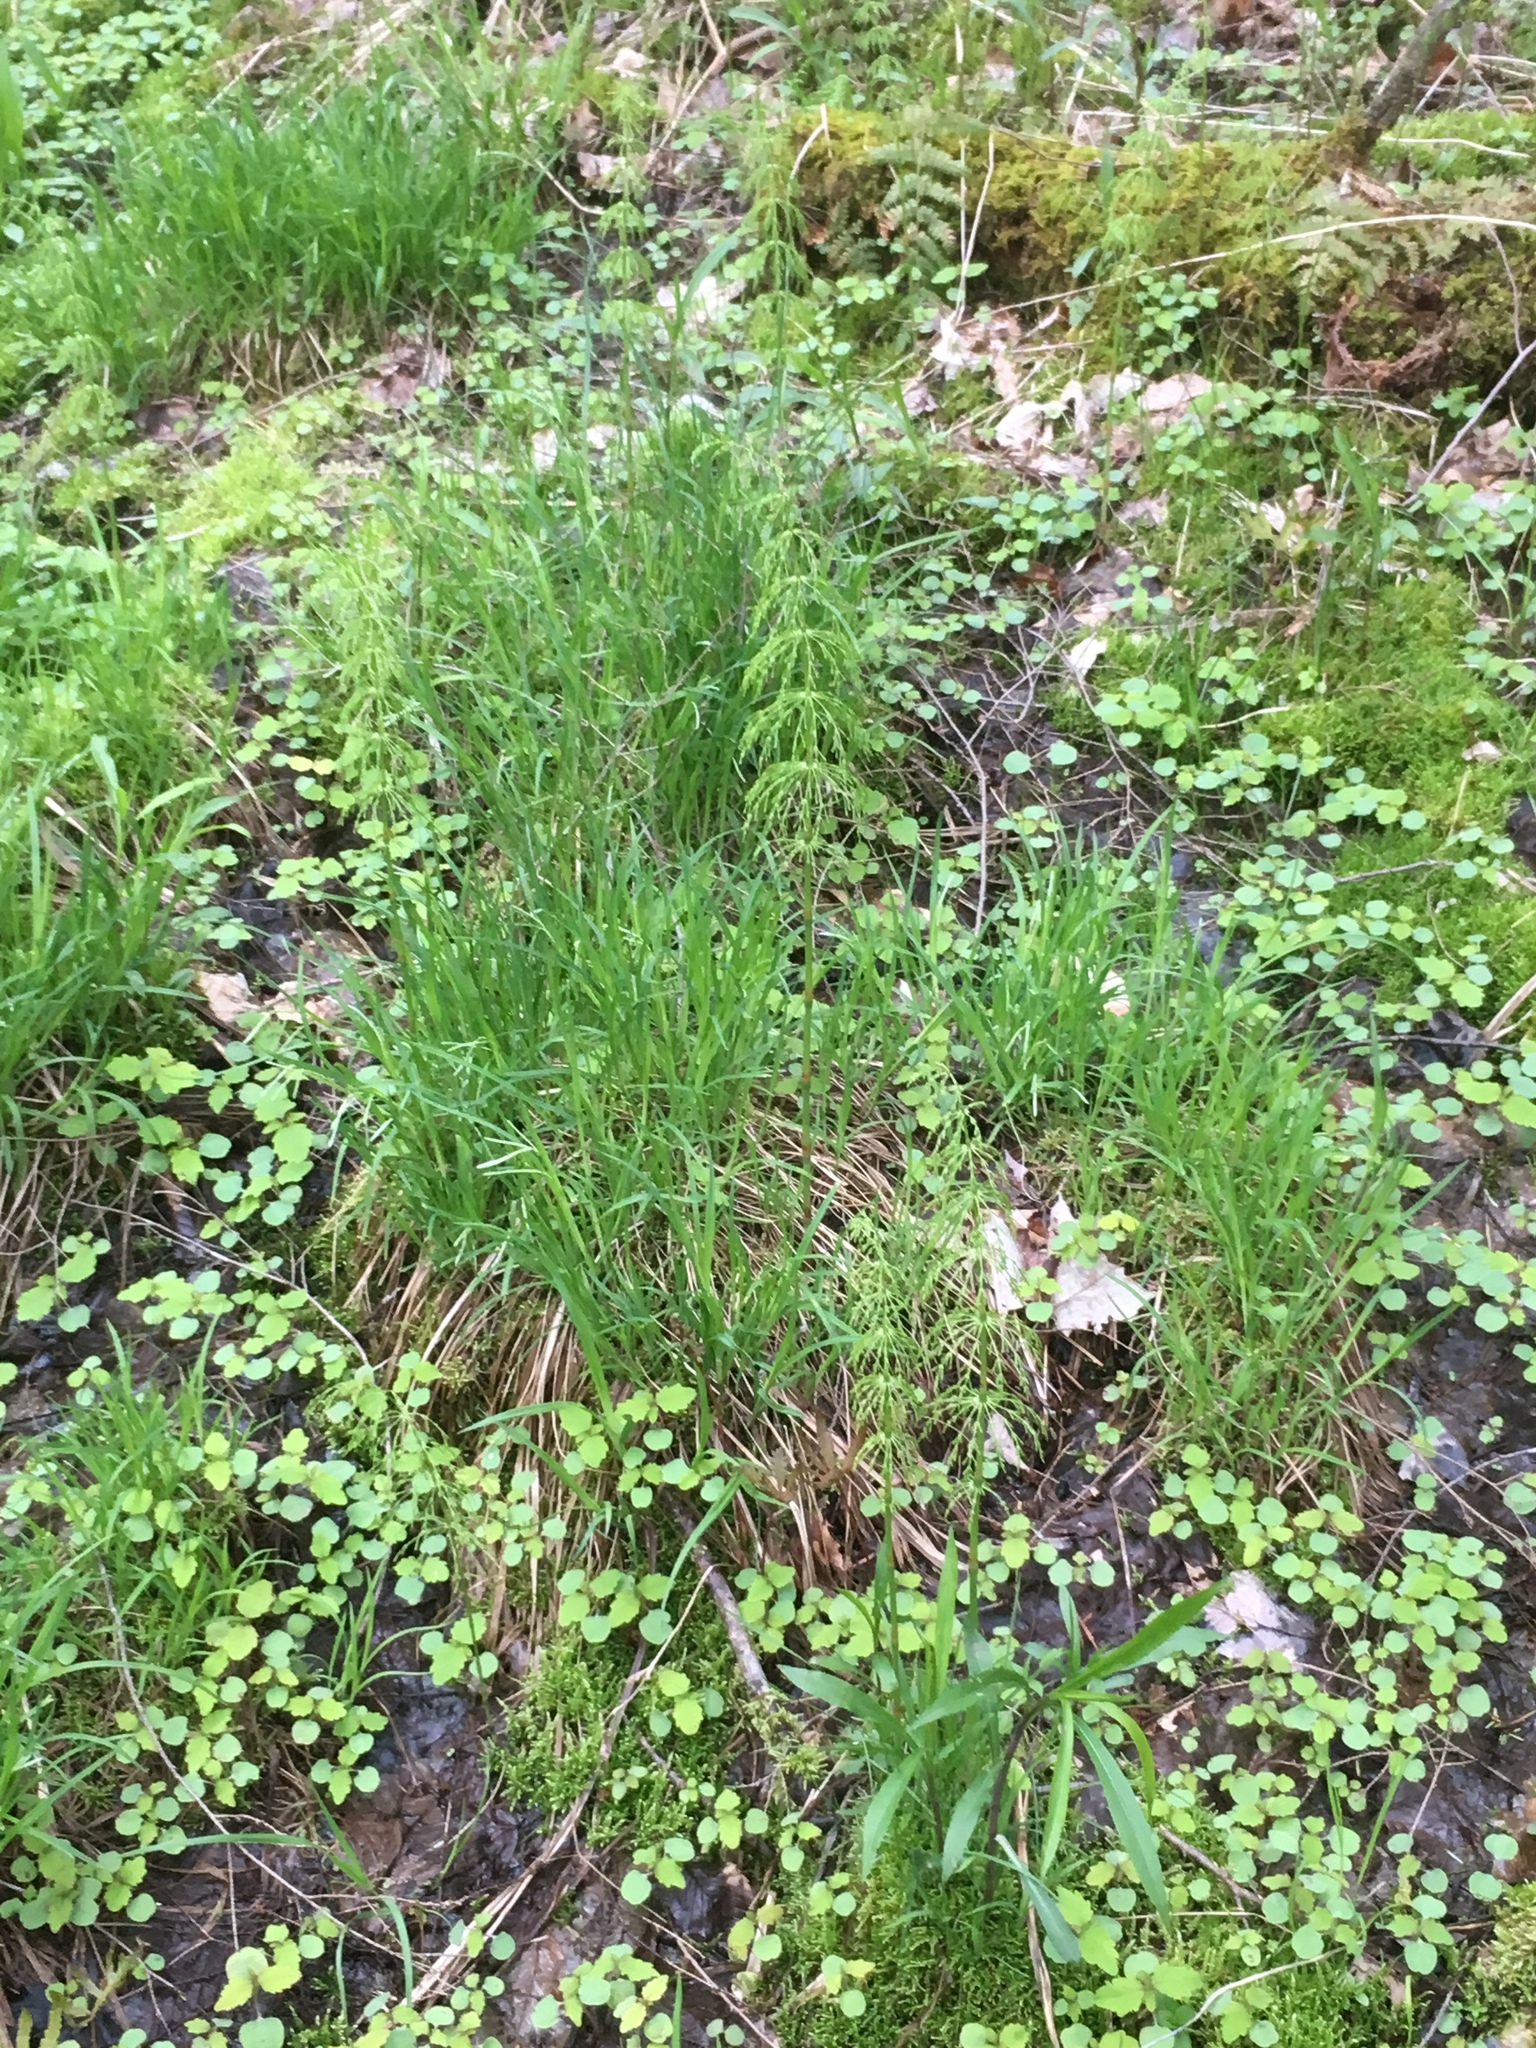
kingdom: Plantae
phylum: Tracheophyta
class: Magnoliopsida
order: Ericales
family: Balsaminaceae
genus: Impatiens
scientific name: Impatiens capensis
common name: Orange balsam
